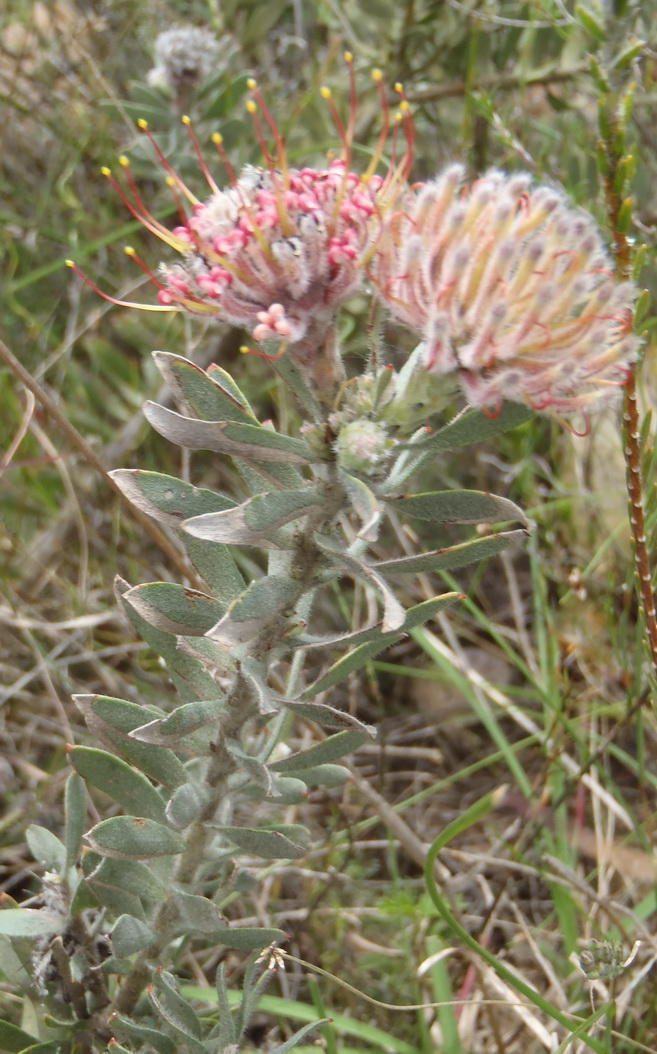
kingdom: Plantae
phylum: Tracheophyta
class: Magnoliopsida
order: Proteales
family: Proteaceae
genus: Leucospermum
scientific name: Leucospermum calligerum
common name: Arid pincushion
